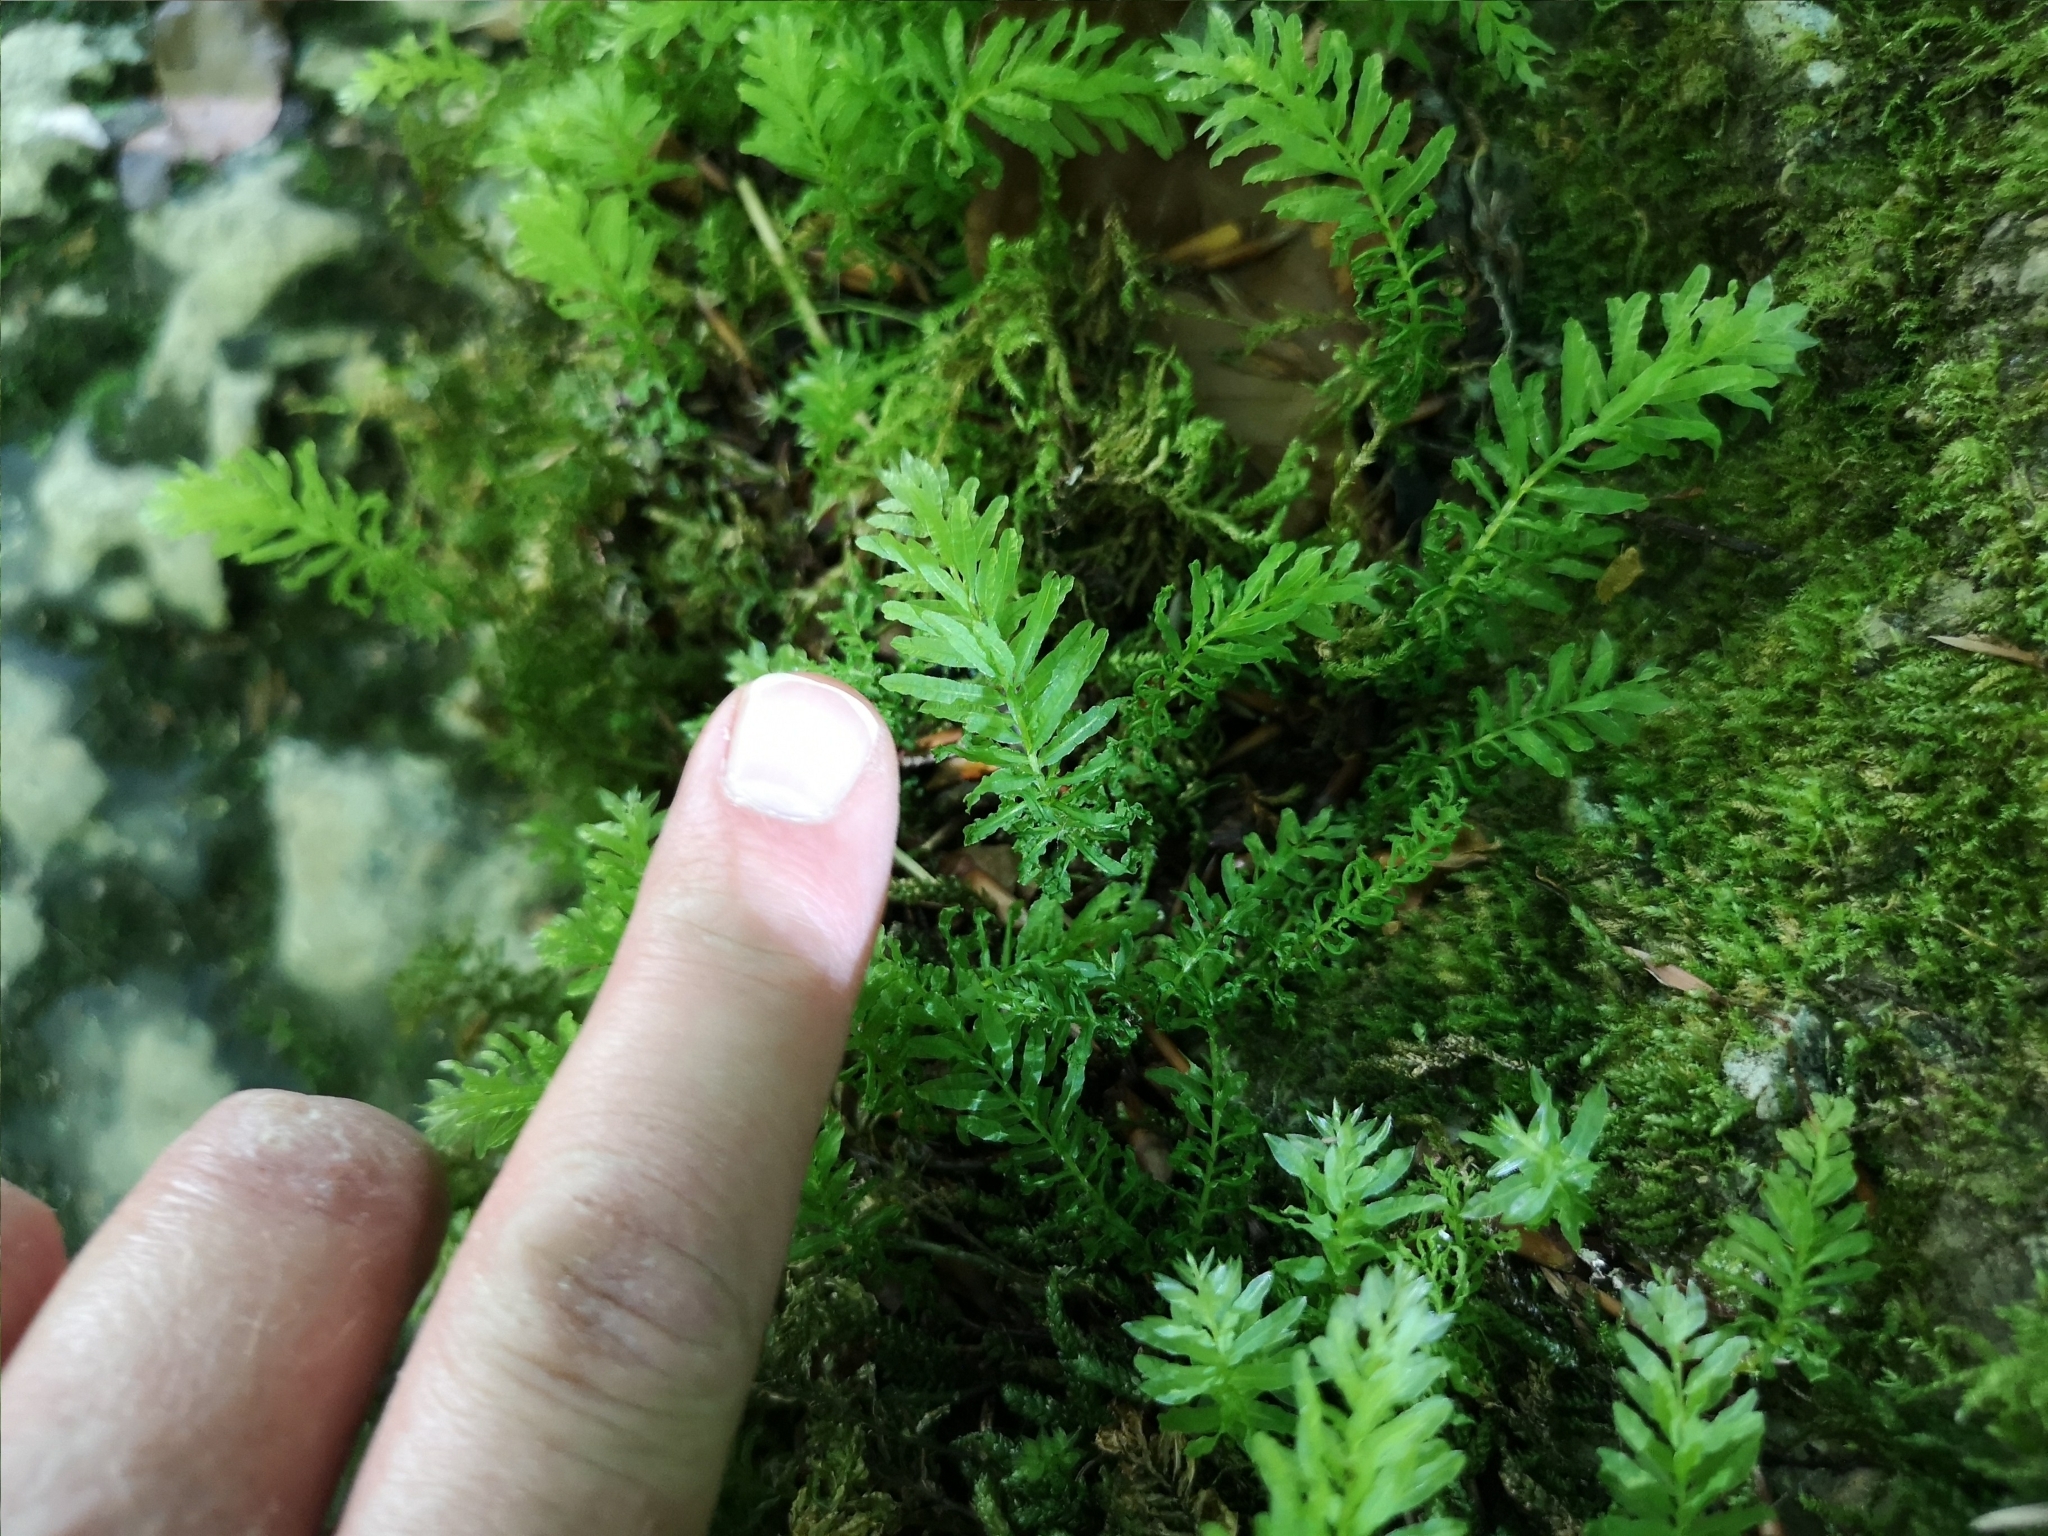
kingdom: Plantae
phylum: Bryophyta
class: Bryopsida
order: Bryales
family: Mniaceae
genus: Plagiomnium
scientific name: Plagiomnium undulatum
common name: Hart's-tongue thyme-moss
